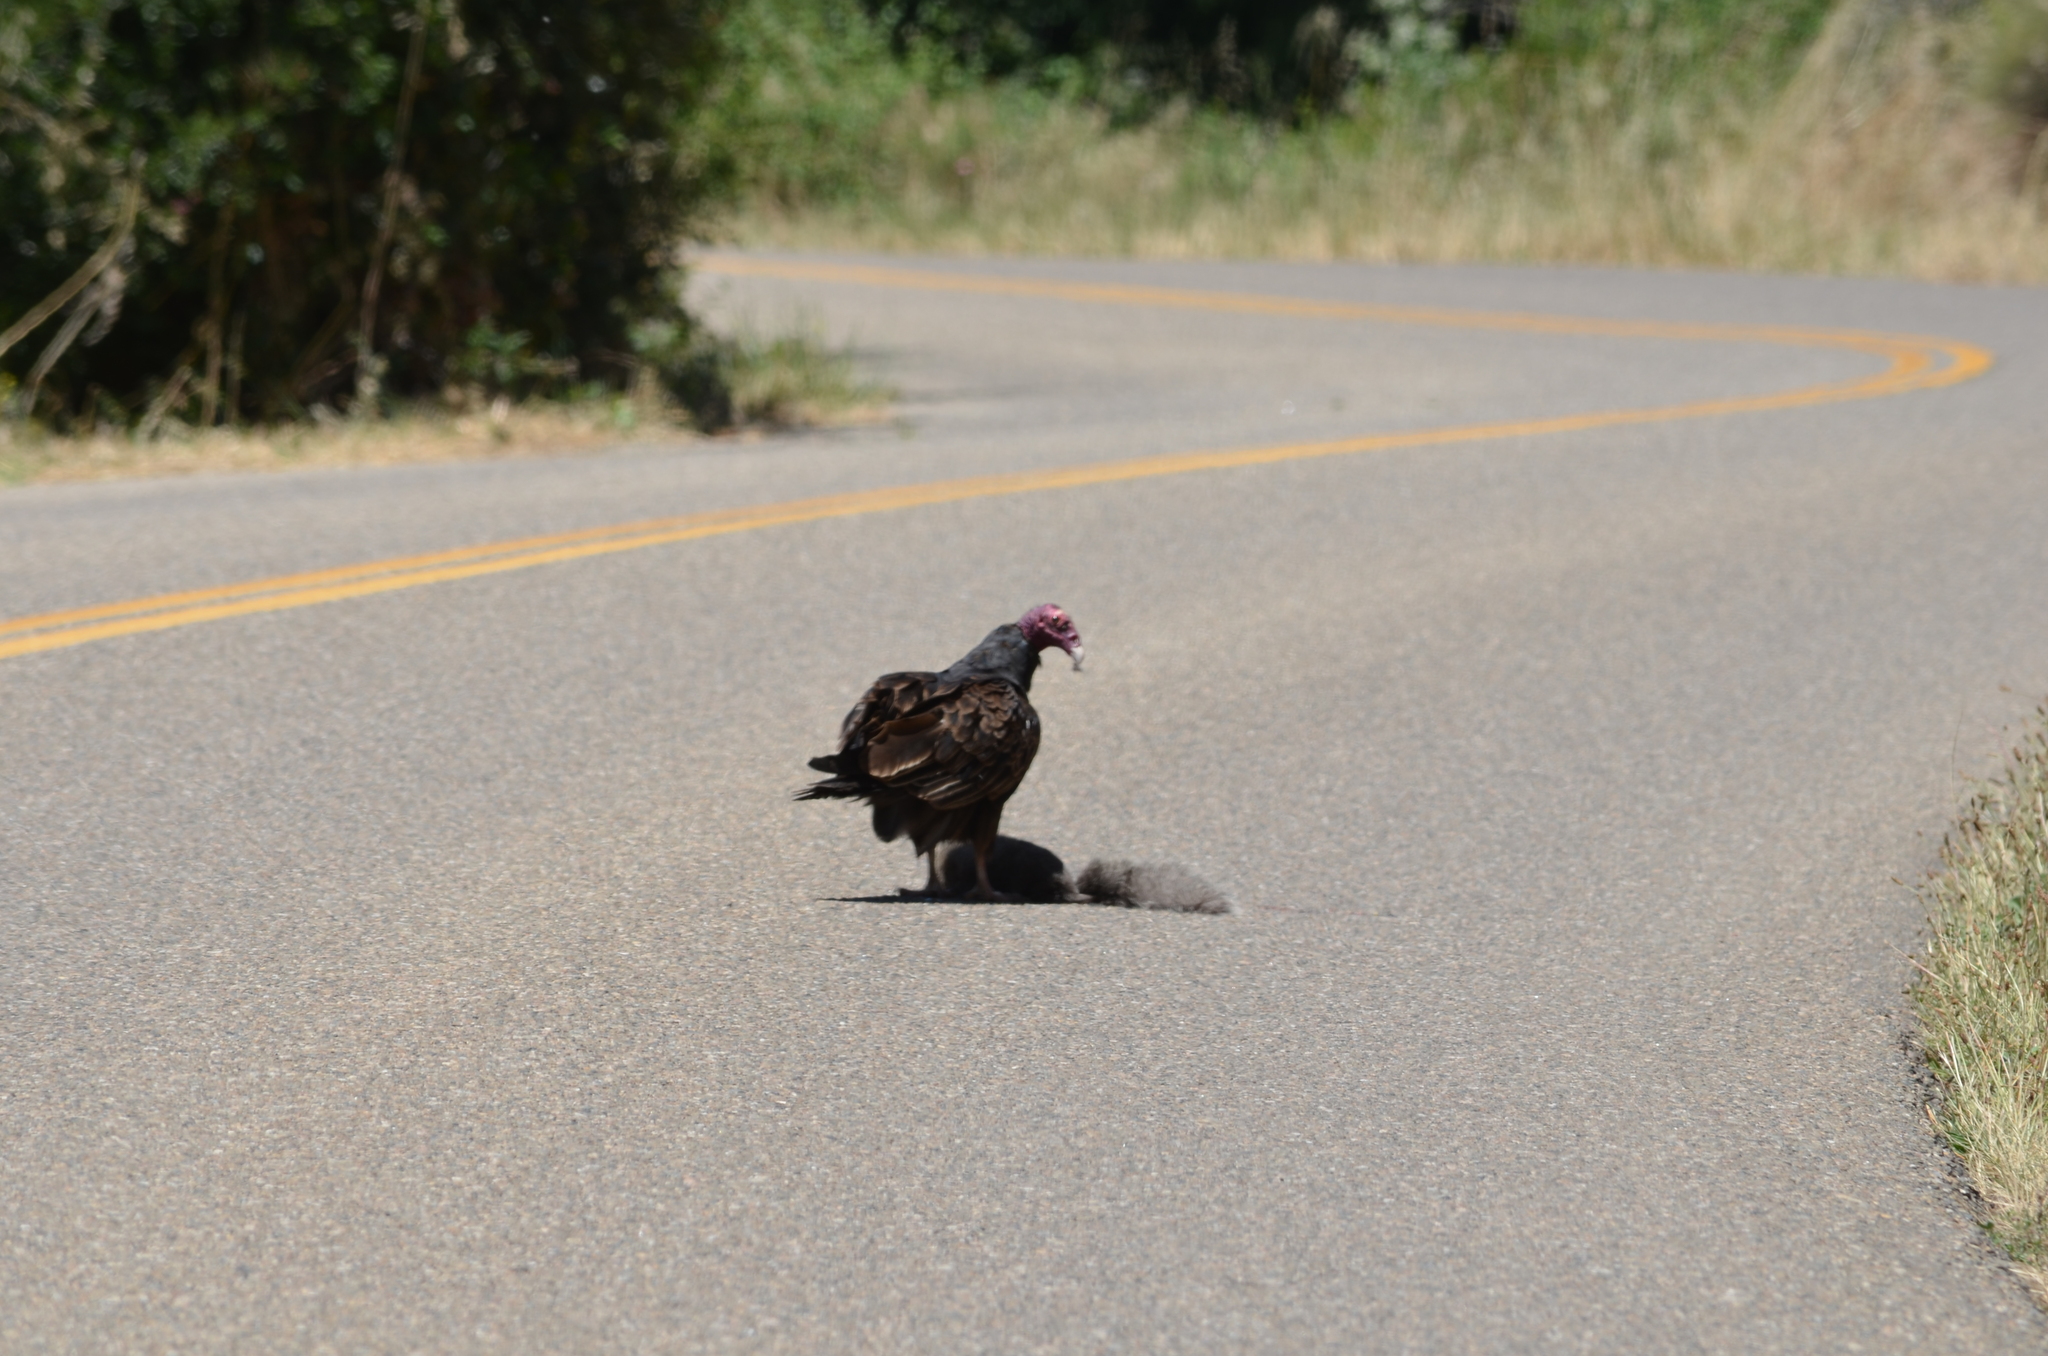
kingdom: Animalia
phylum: Chordata
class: Aves
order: Accipitriformes
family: Cathartidae
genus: Cathartes
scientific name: Cathartes aura
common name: Turkey vulture
